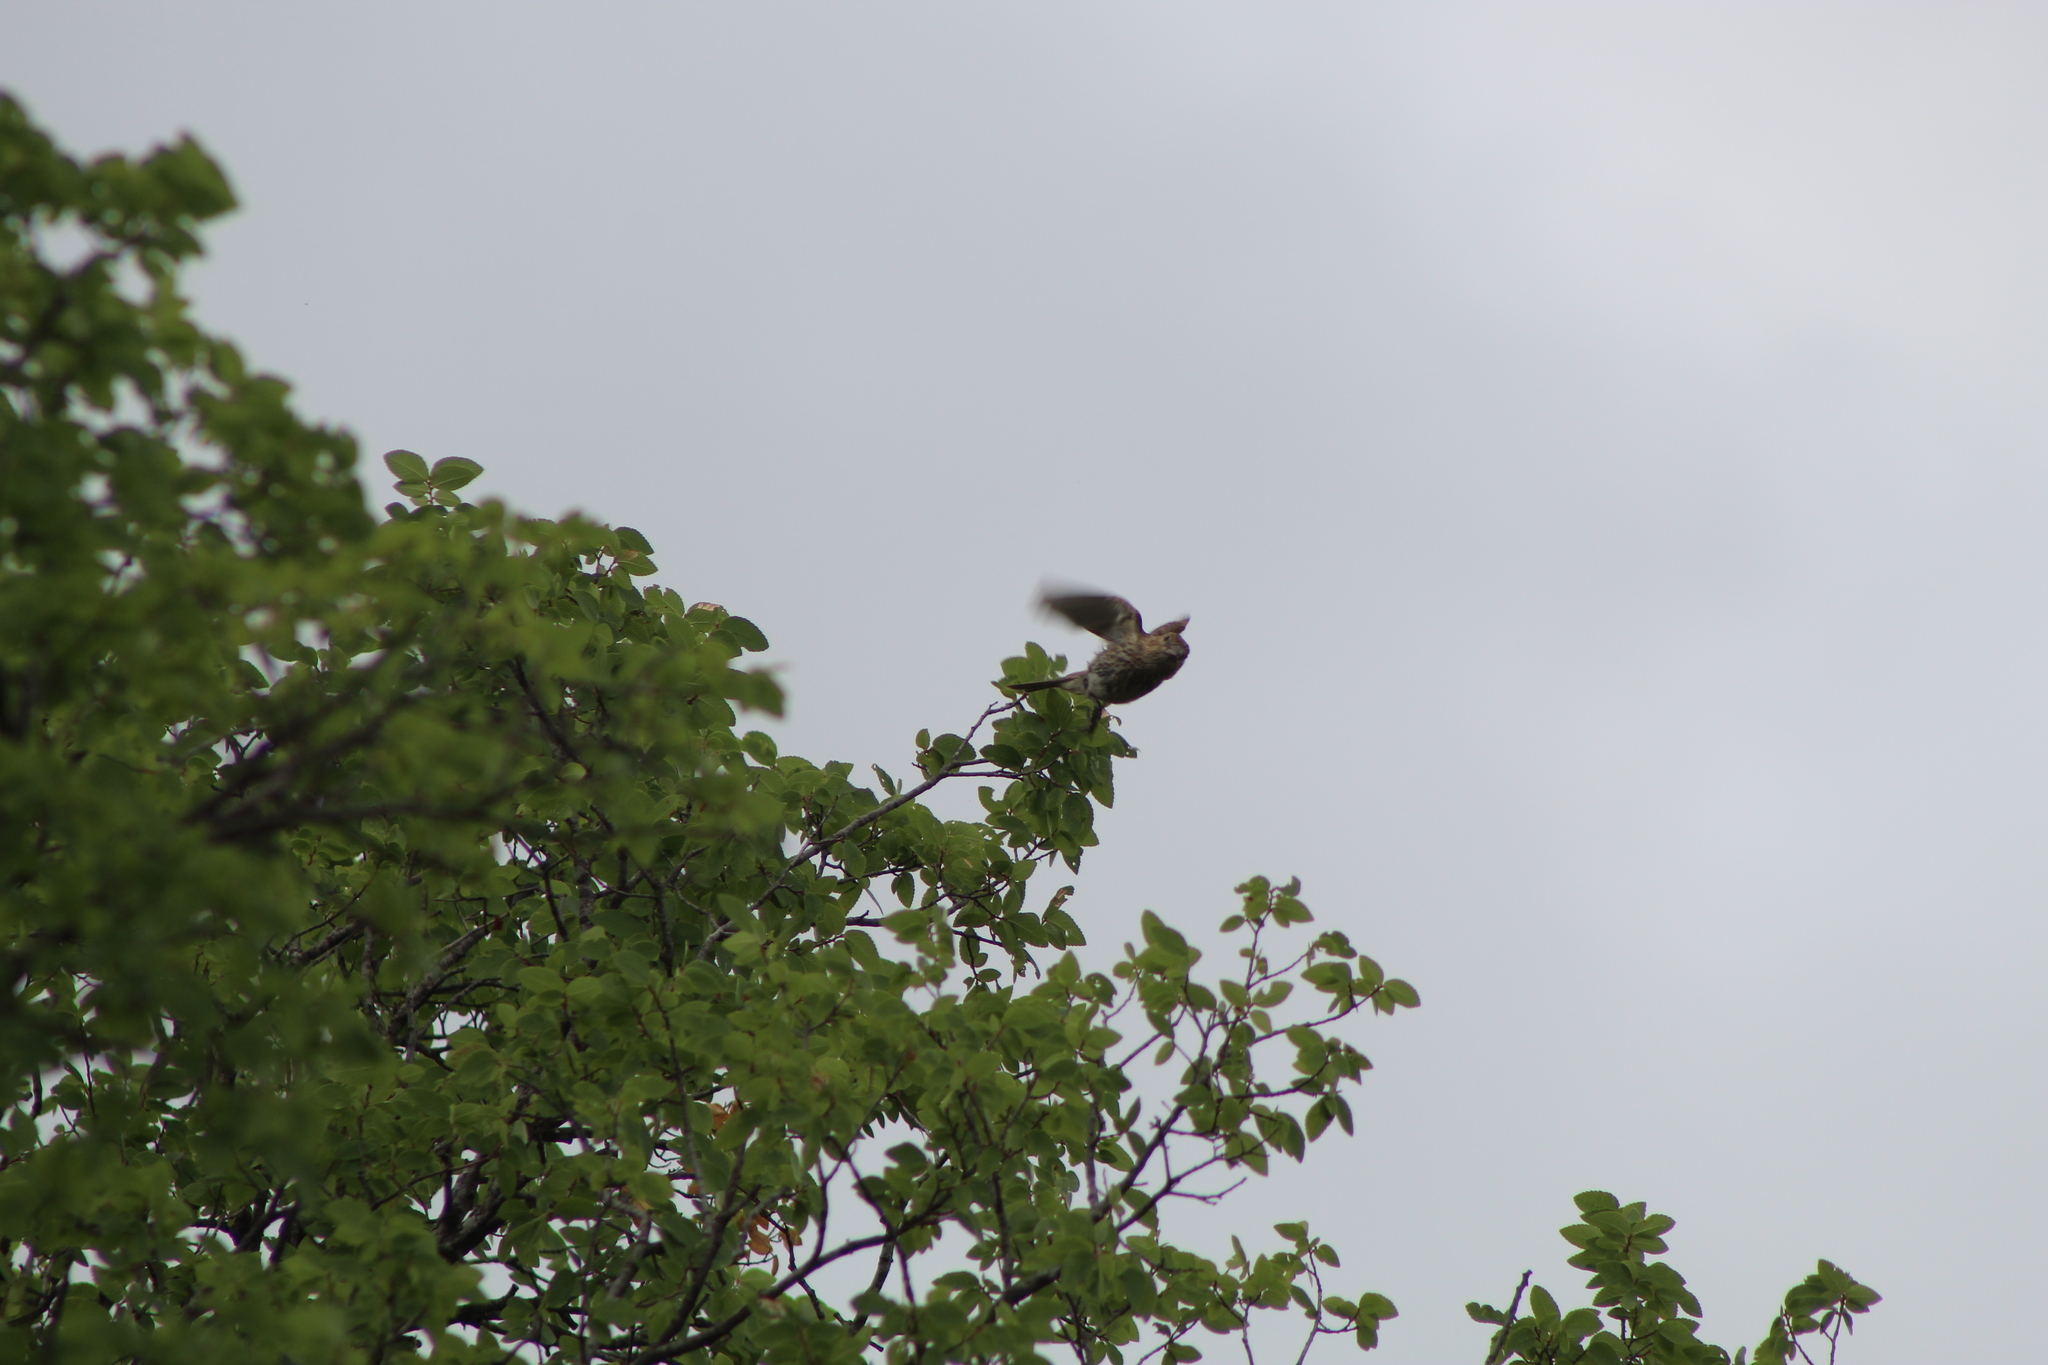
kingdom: Animalia
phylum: Chordata
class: Aves
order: Passeriformes
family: Fringillidae
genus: Haemorhous
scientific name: Haemorhous mexicanus
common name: House finch
